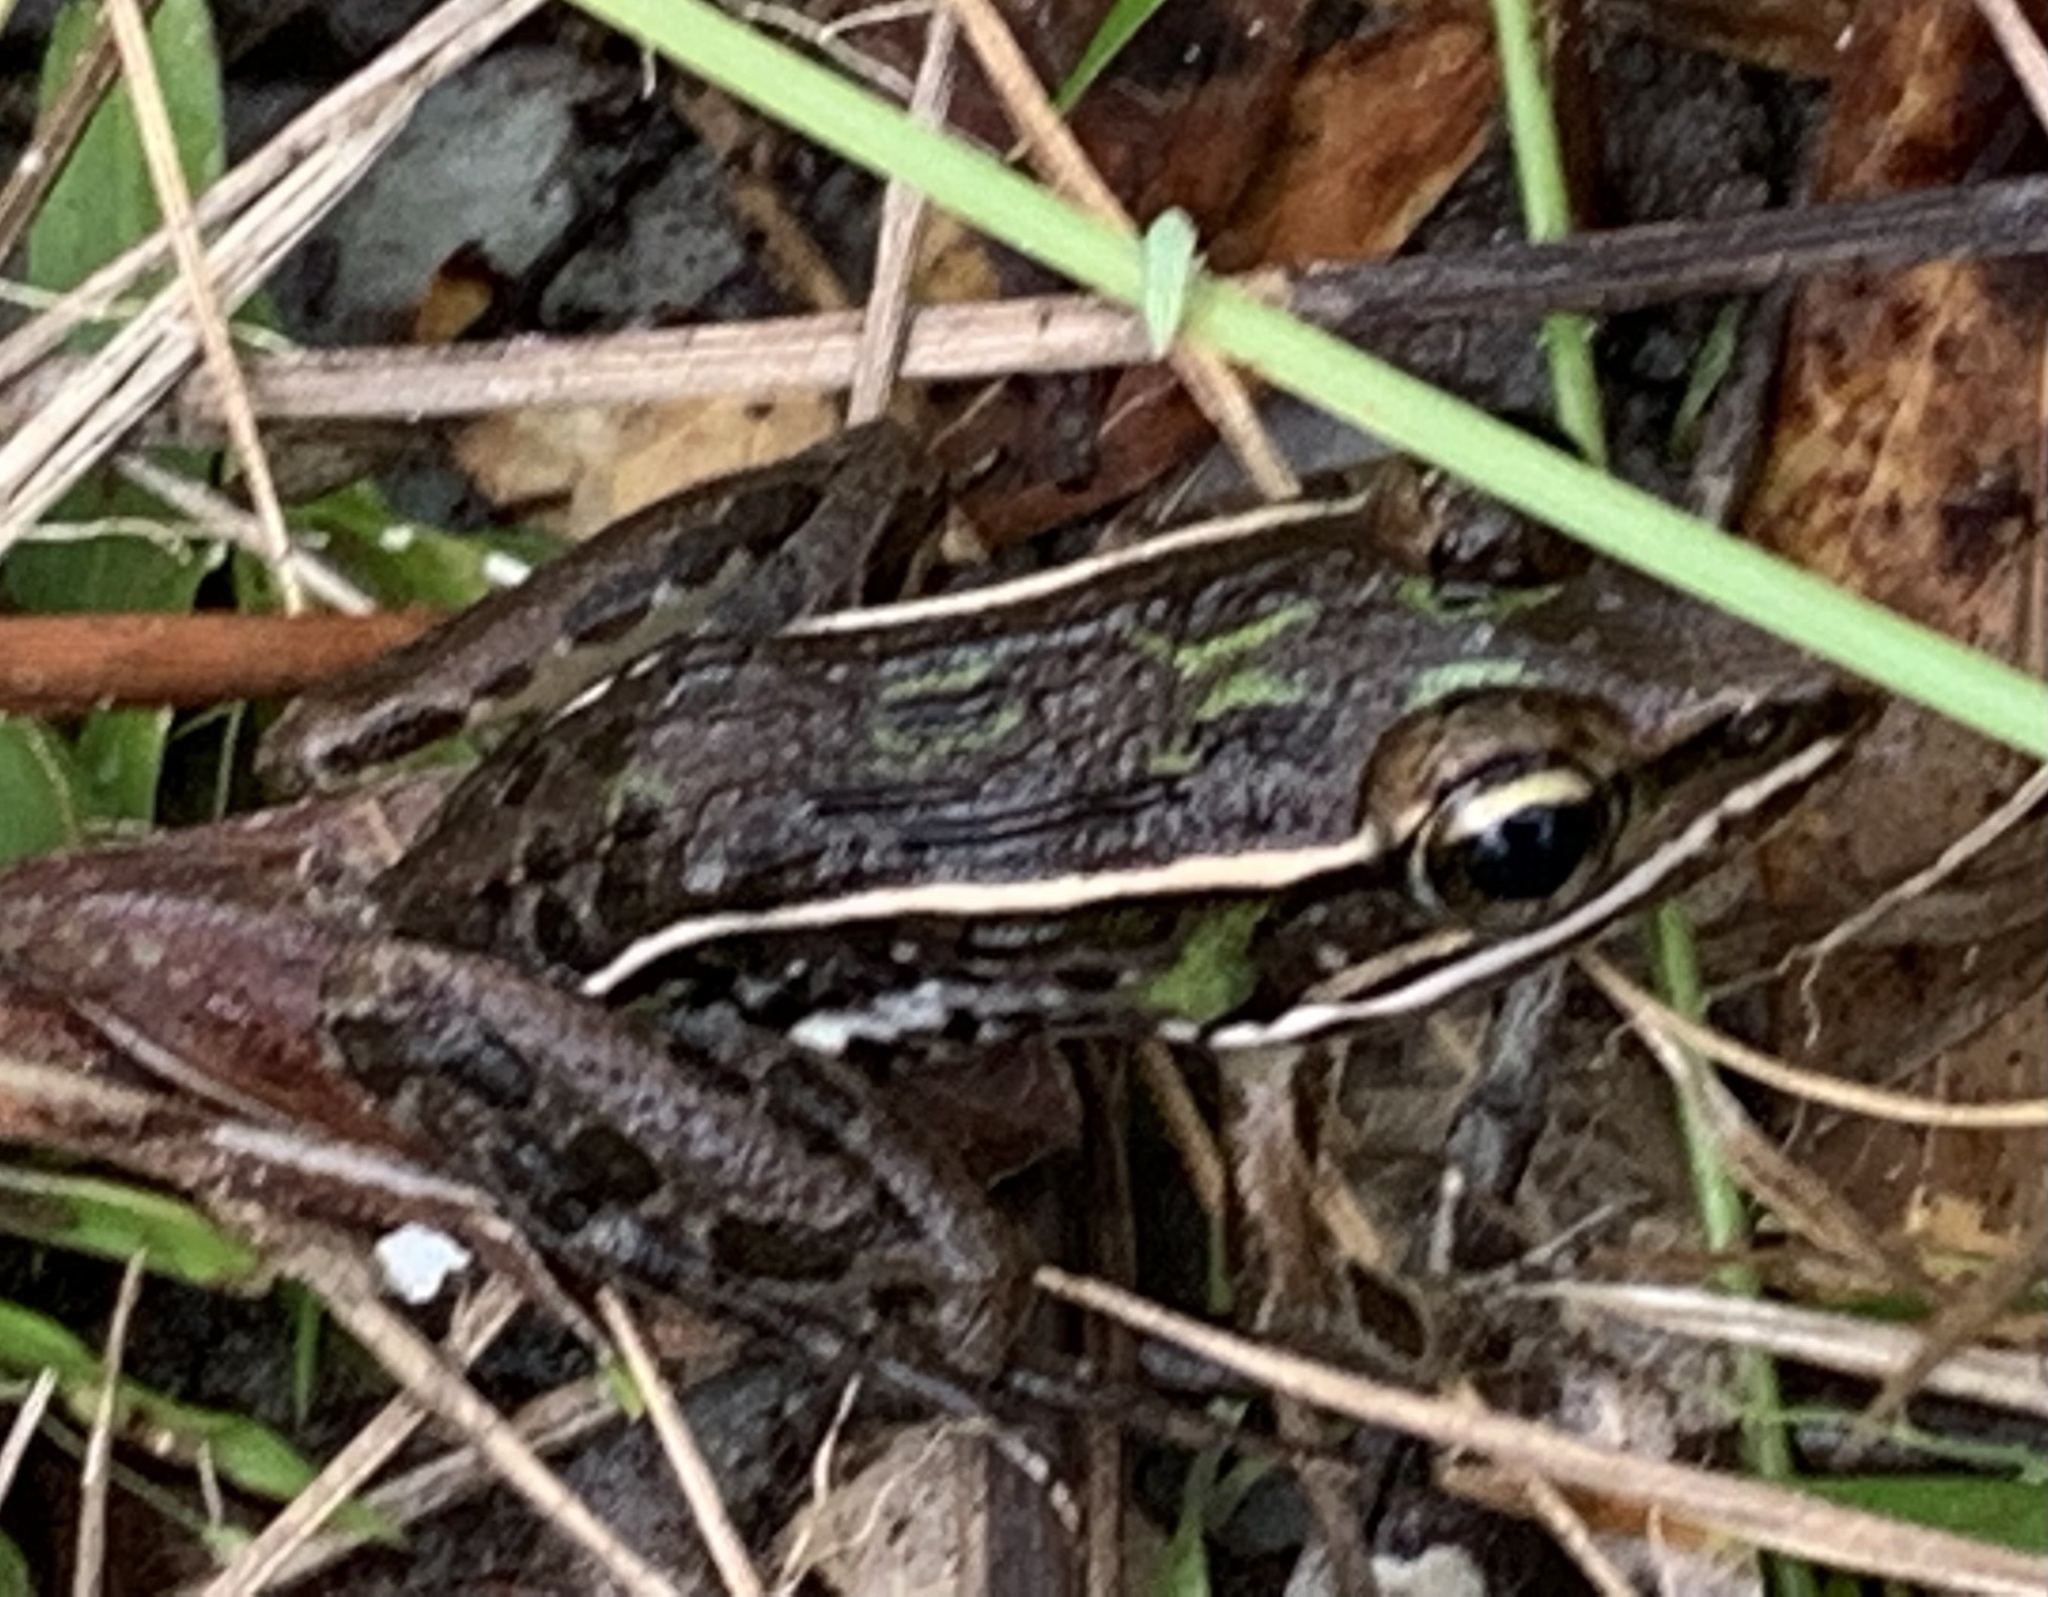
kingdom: Animalia
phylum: Chordata
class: Amphibia
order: Anura
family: Ranidae
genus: Lithobates
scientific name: Lithobates sphenocephalus
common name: Southern leopard frog
